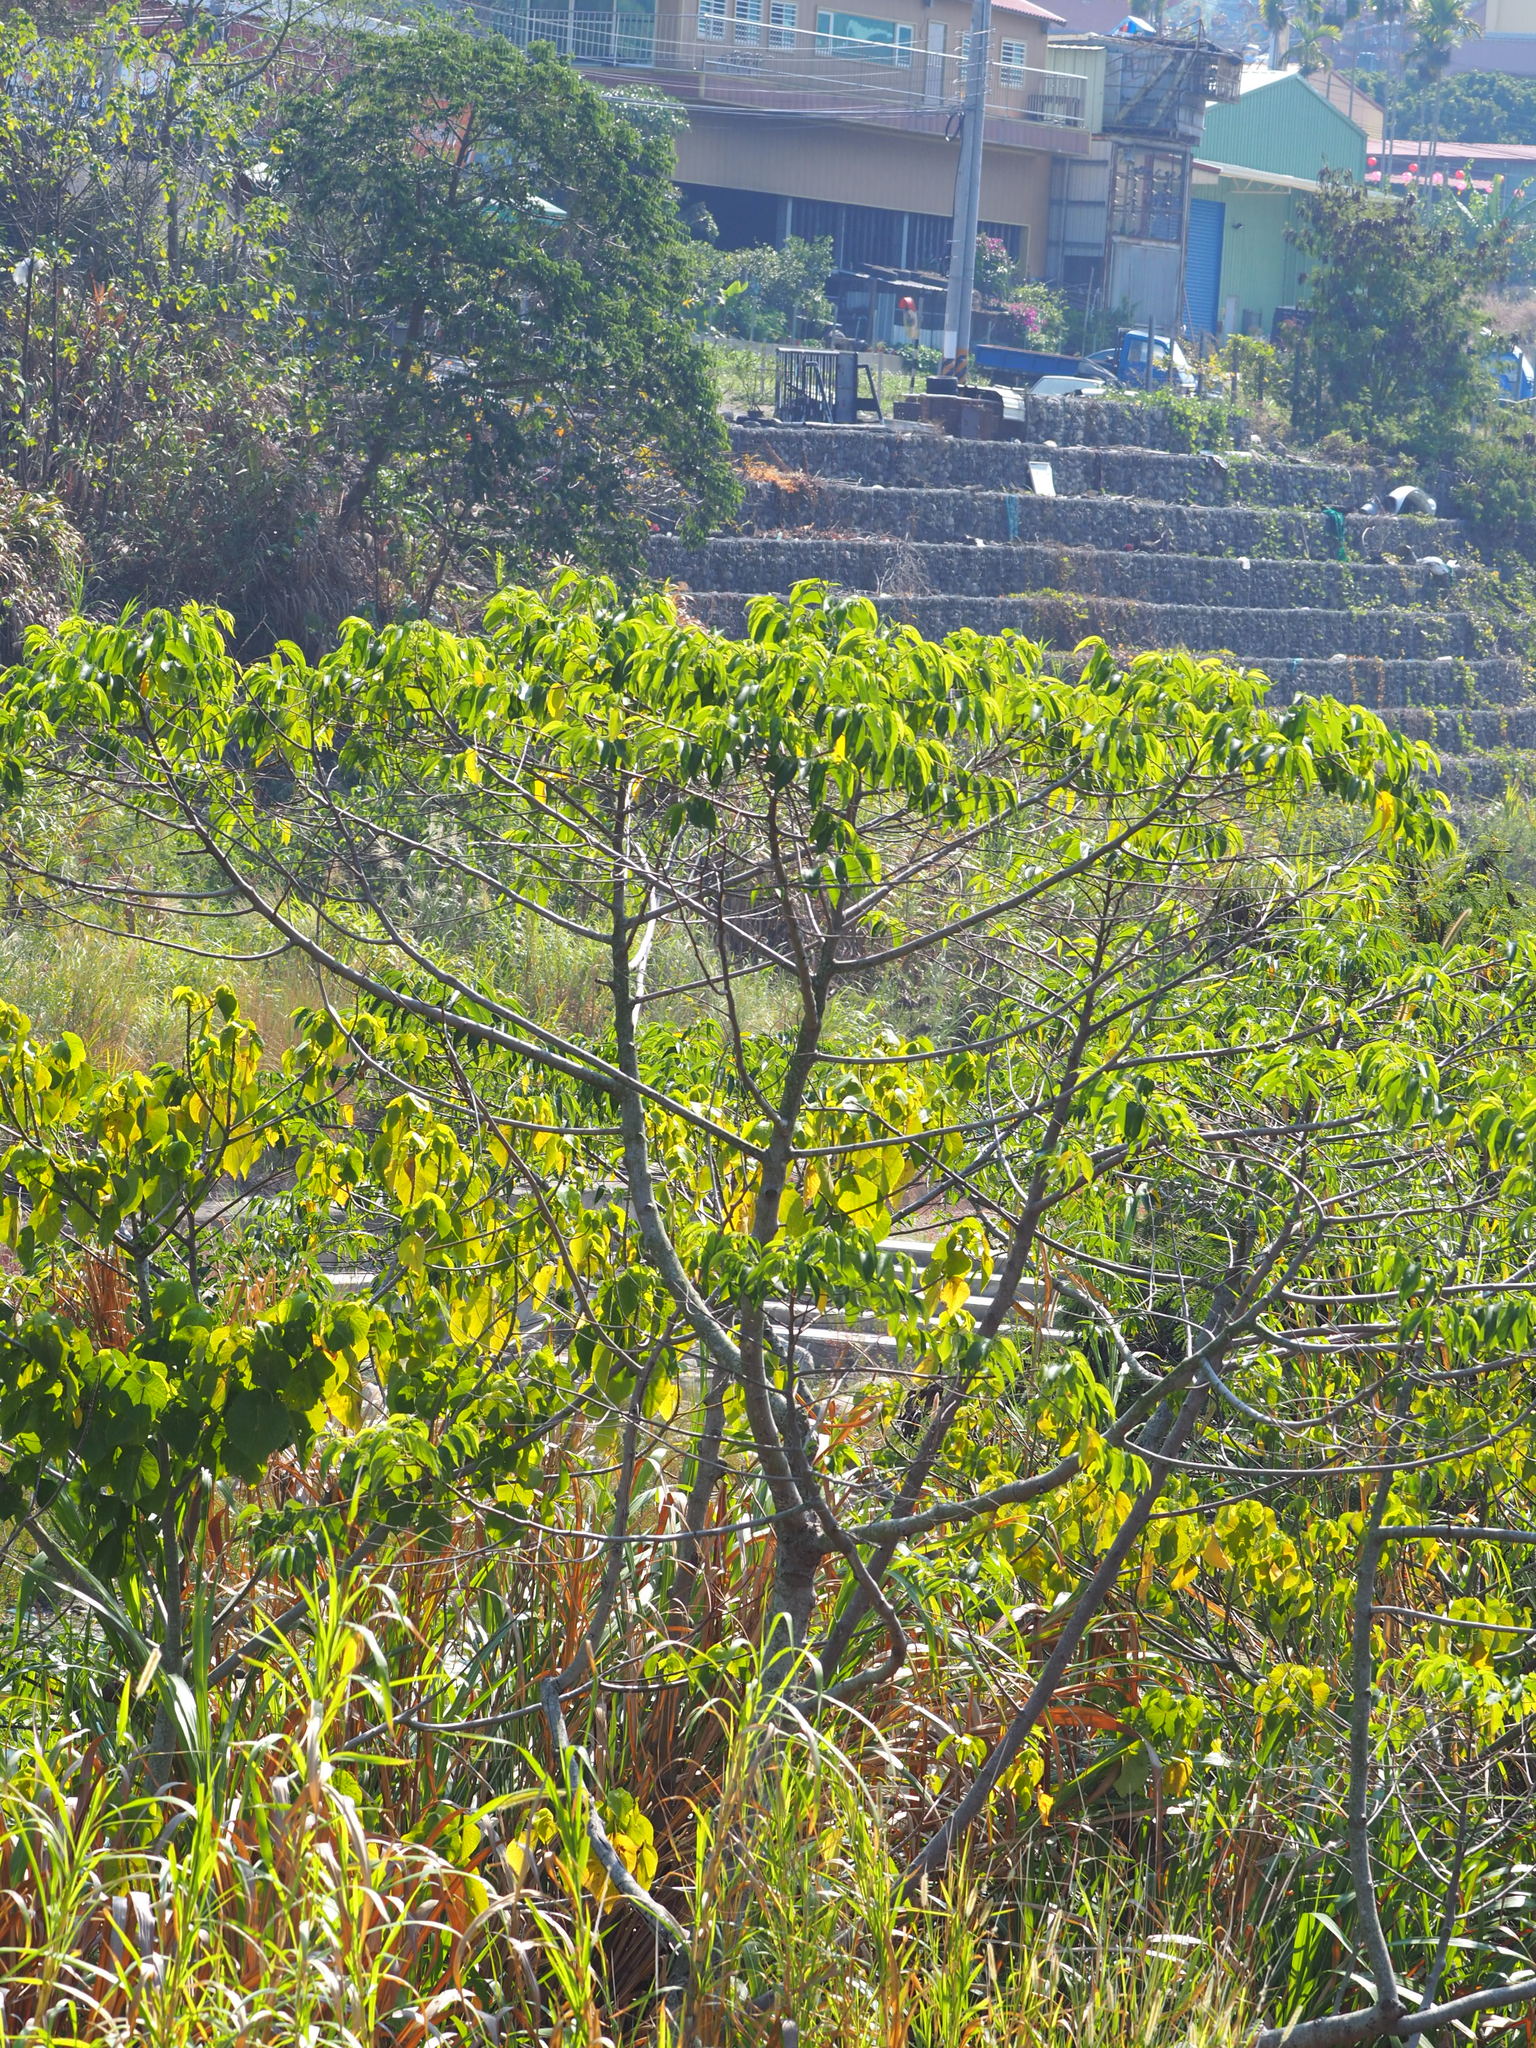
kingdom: Plantae
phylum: Tracheophyta
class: Magnoliopsida
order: Rosales
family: Cannabaceae
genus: Trema
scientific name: Trema orientale
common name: Indian charcoal tree
